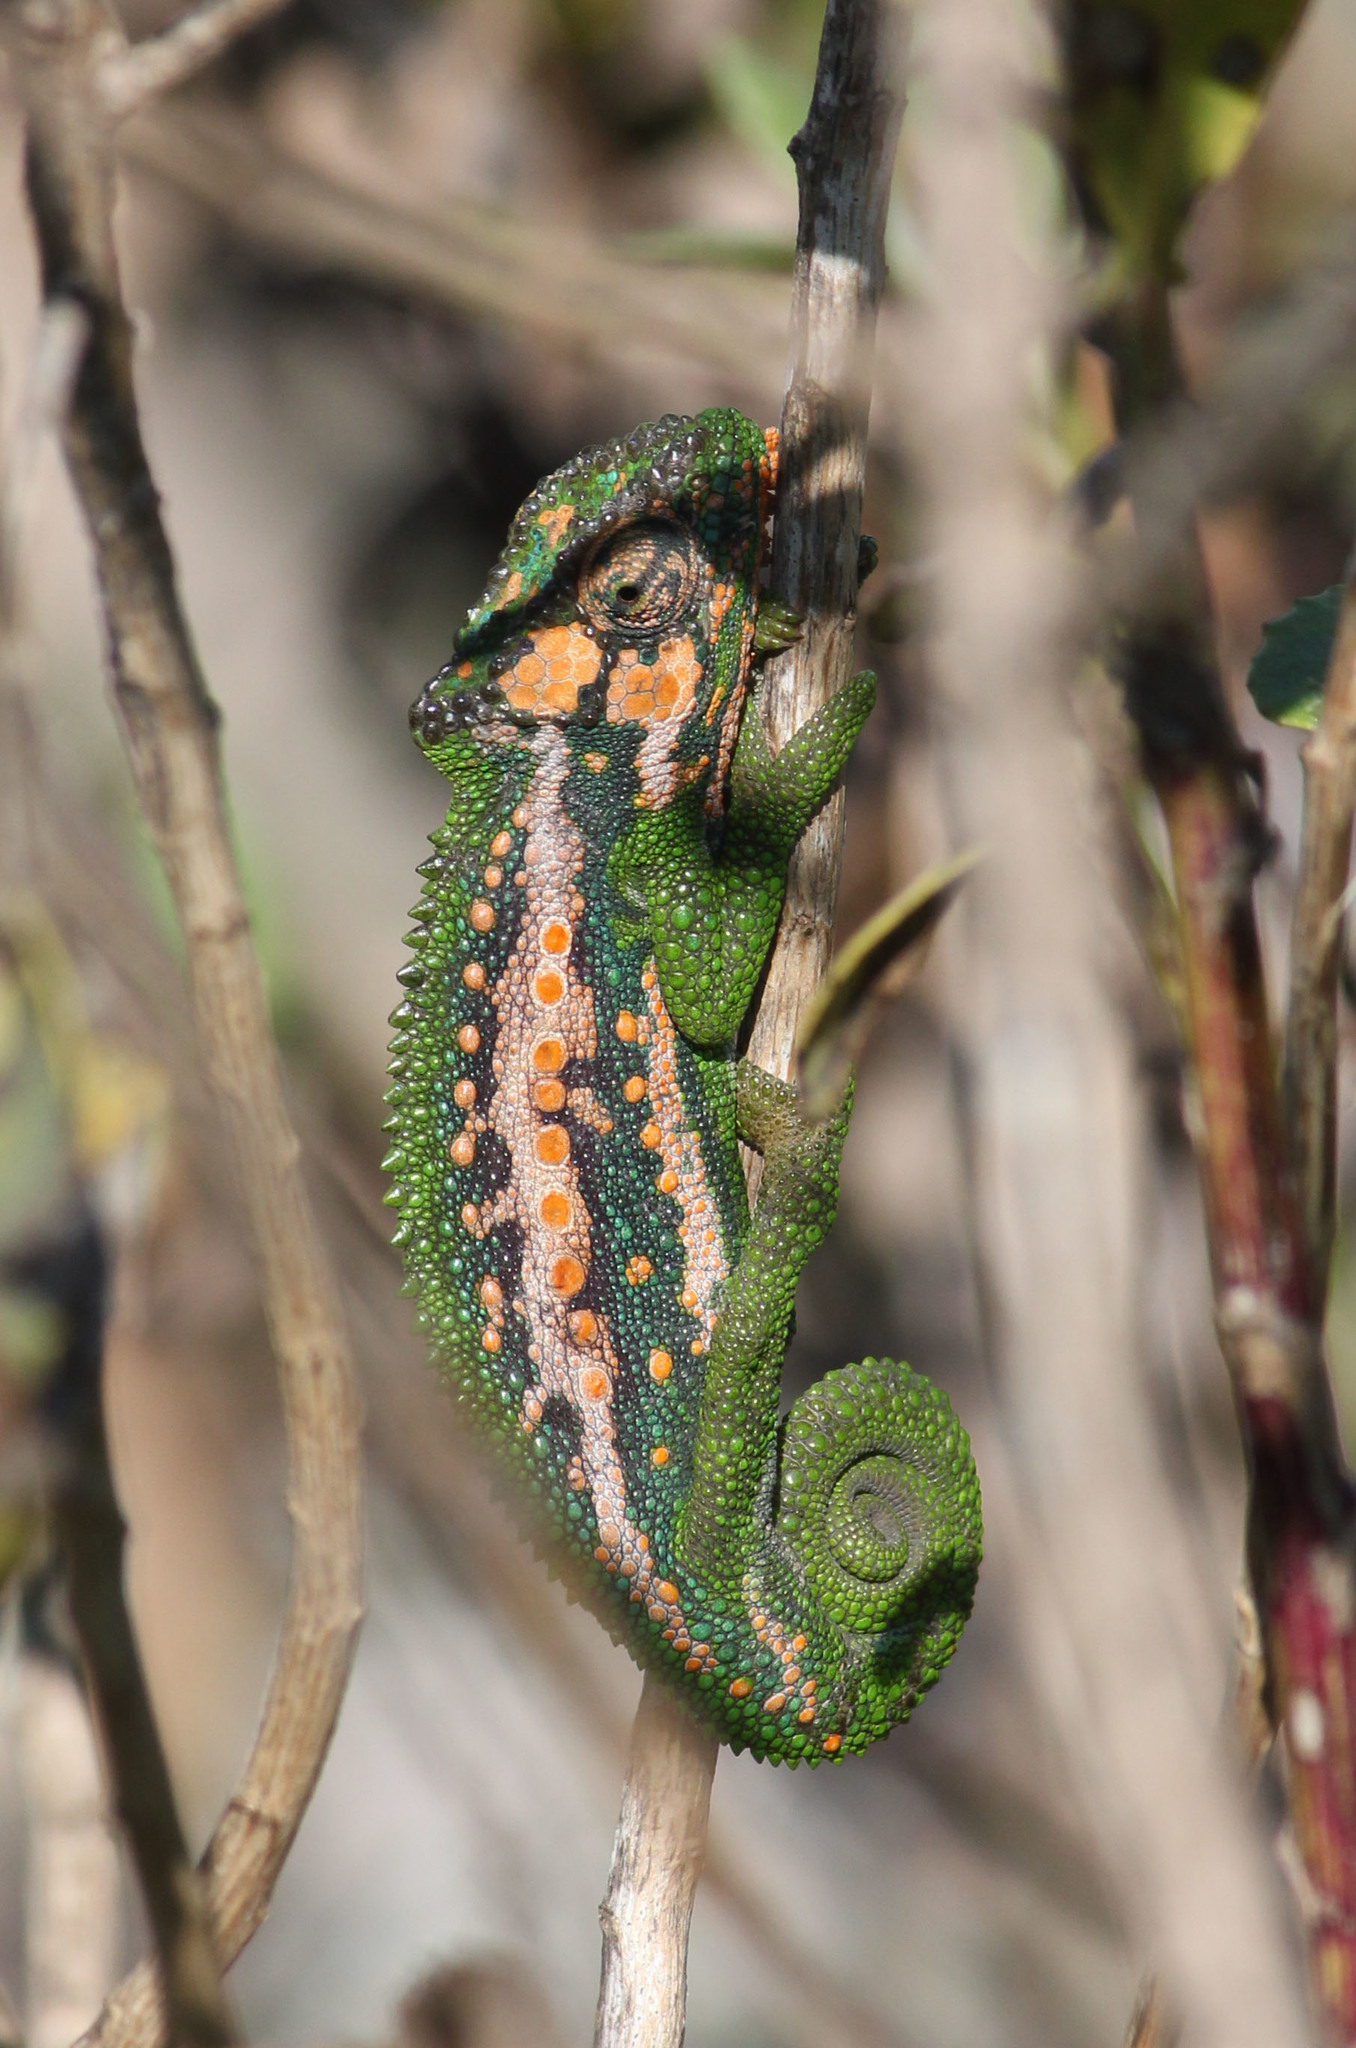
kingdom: Animalia
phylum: Chordata
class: Squamata
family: Chamaeleonidae
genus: Bradypodion
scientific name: Bradypodion pumilum
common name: Cape dwarf chameleon
